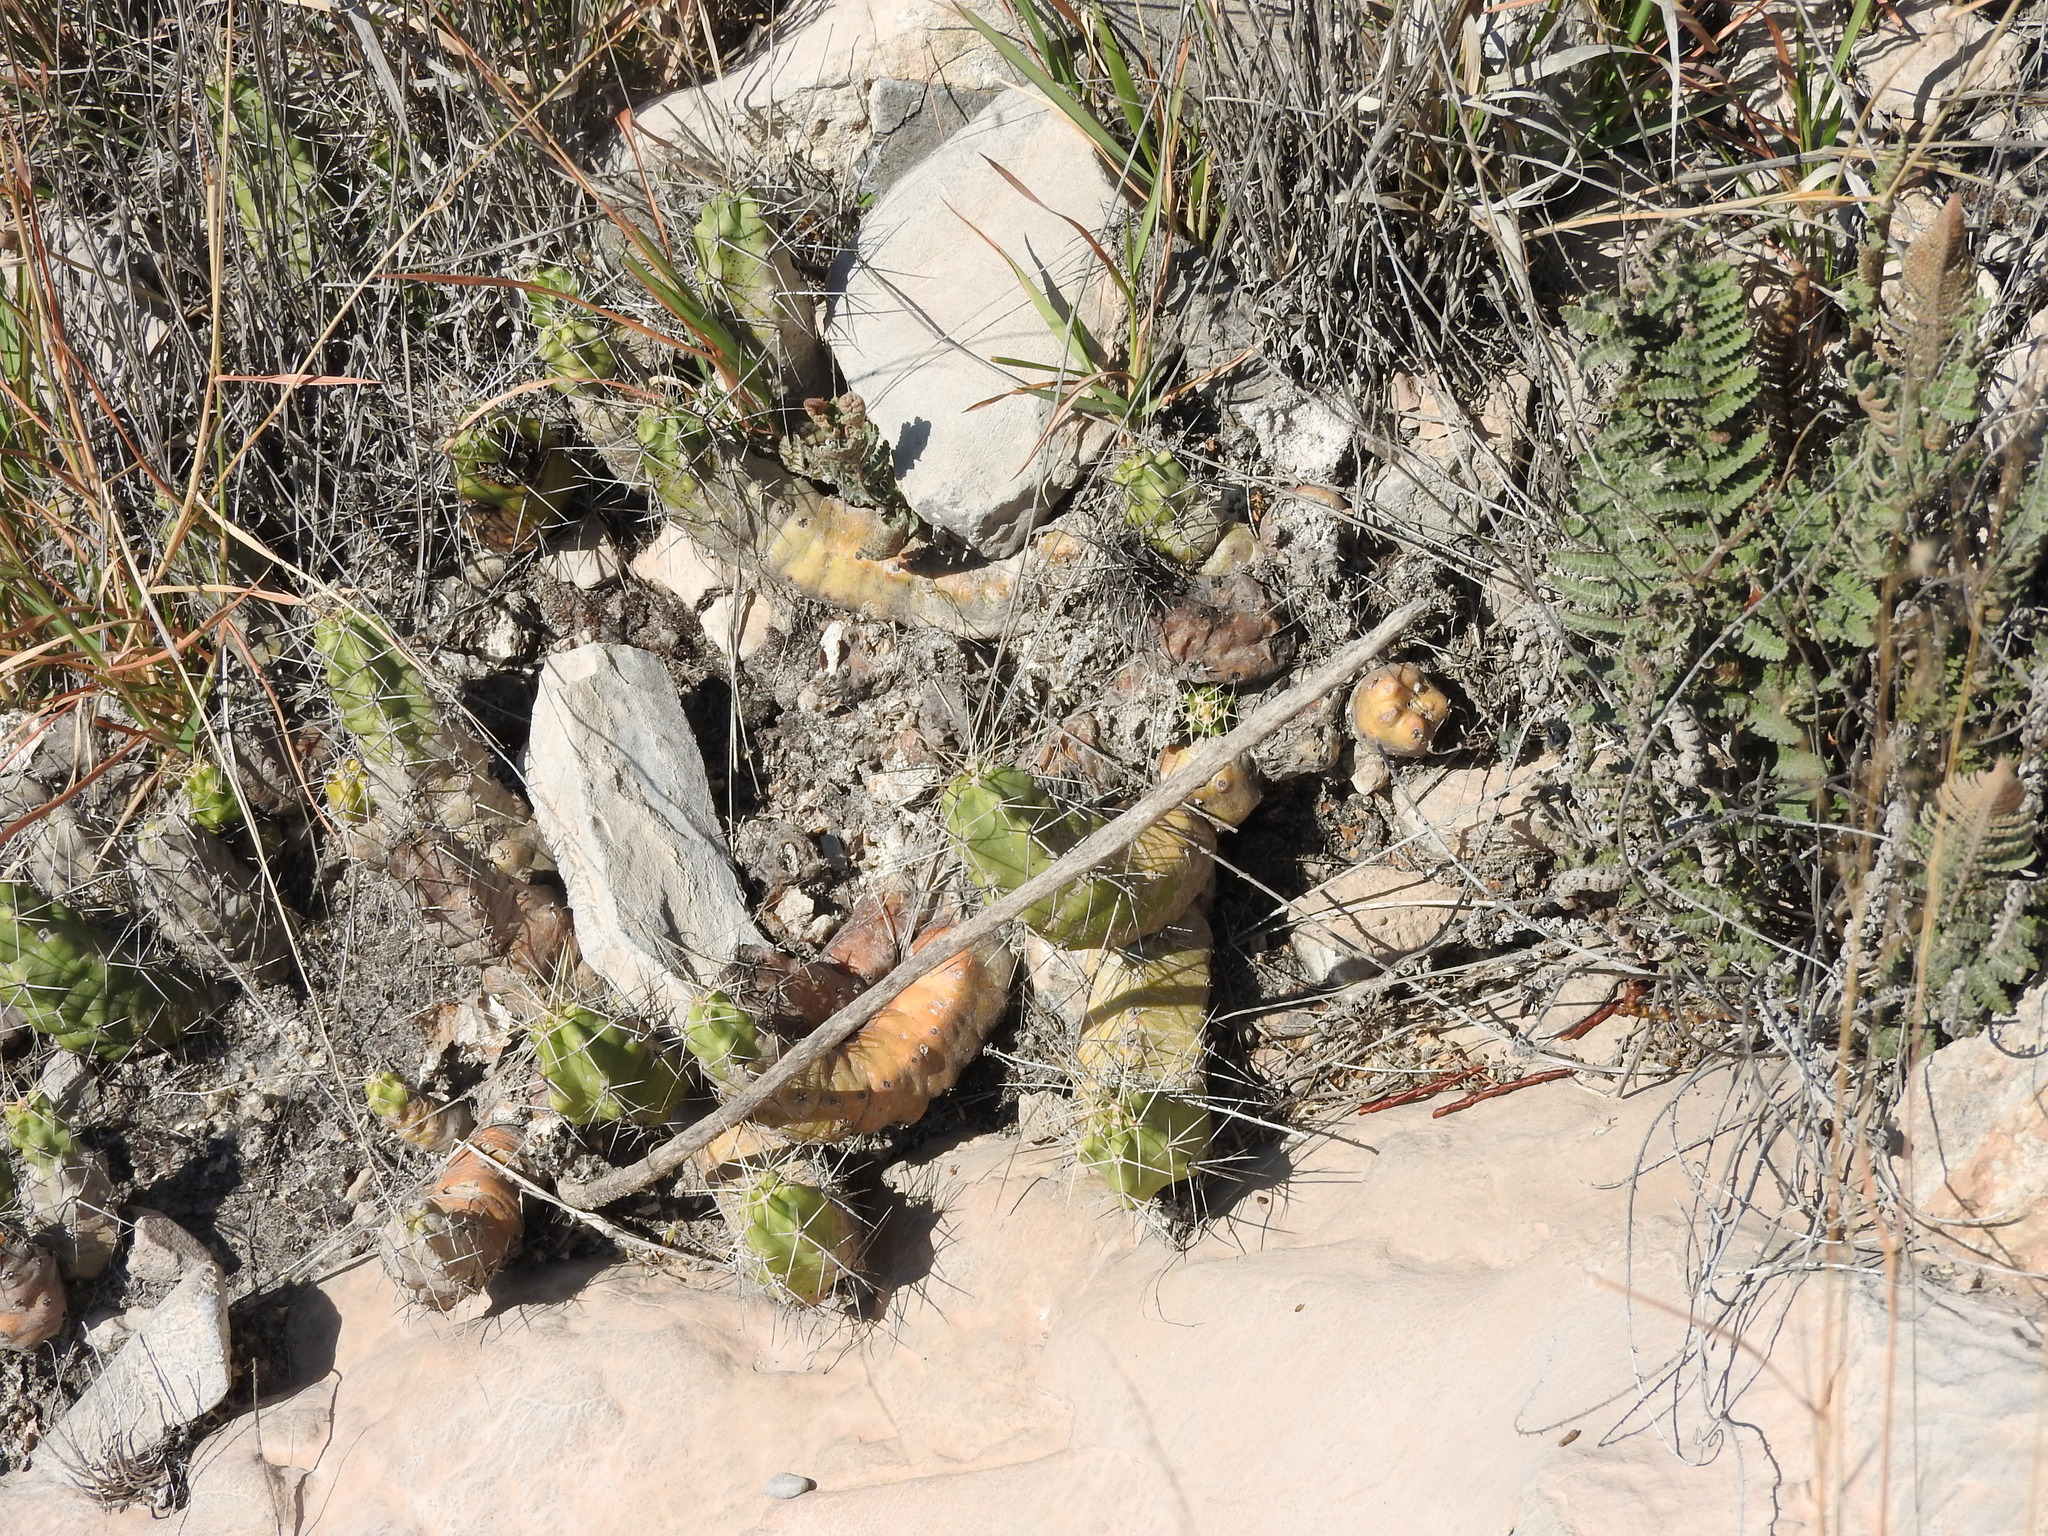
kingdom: Plantae
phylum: Tracheophyta
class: Magnoliopsida
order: Caryophyllales
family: Cactaceae
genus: Echinocereus
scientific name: Echinocereus pentalophus
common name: Ladyfinger cactus
